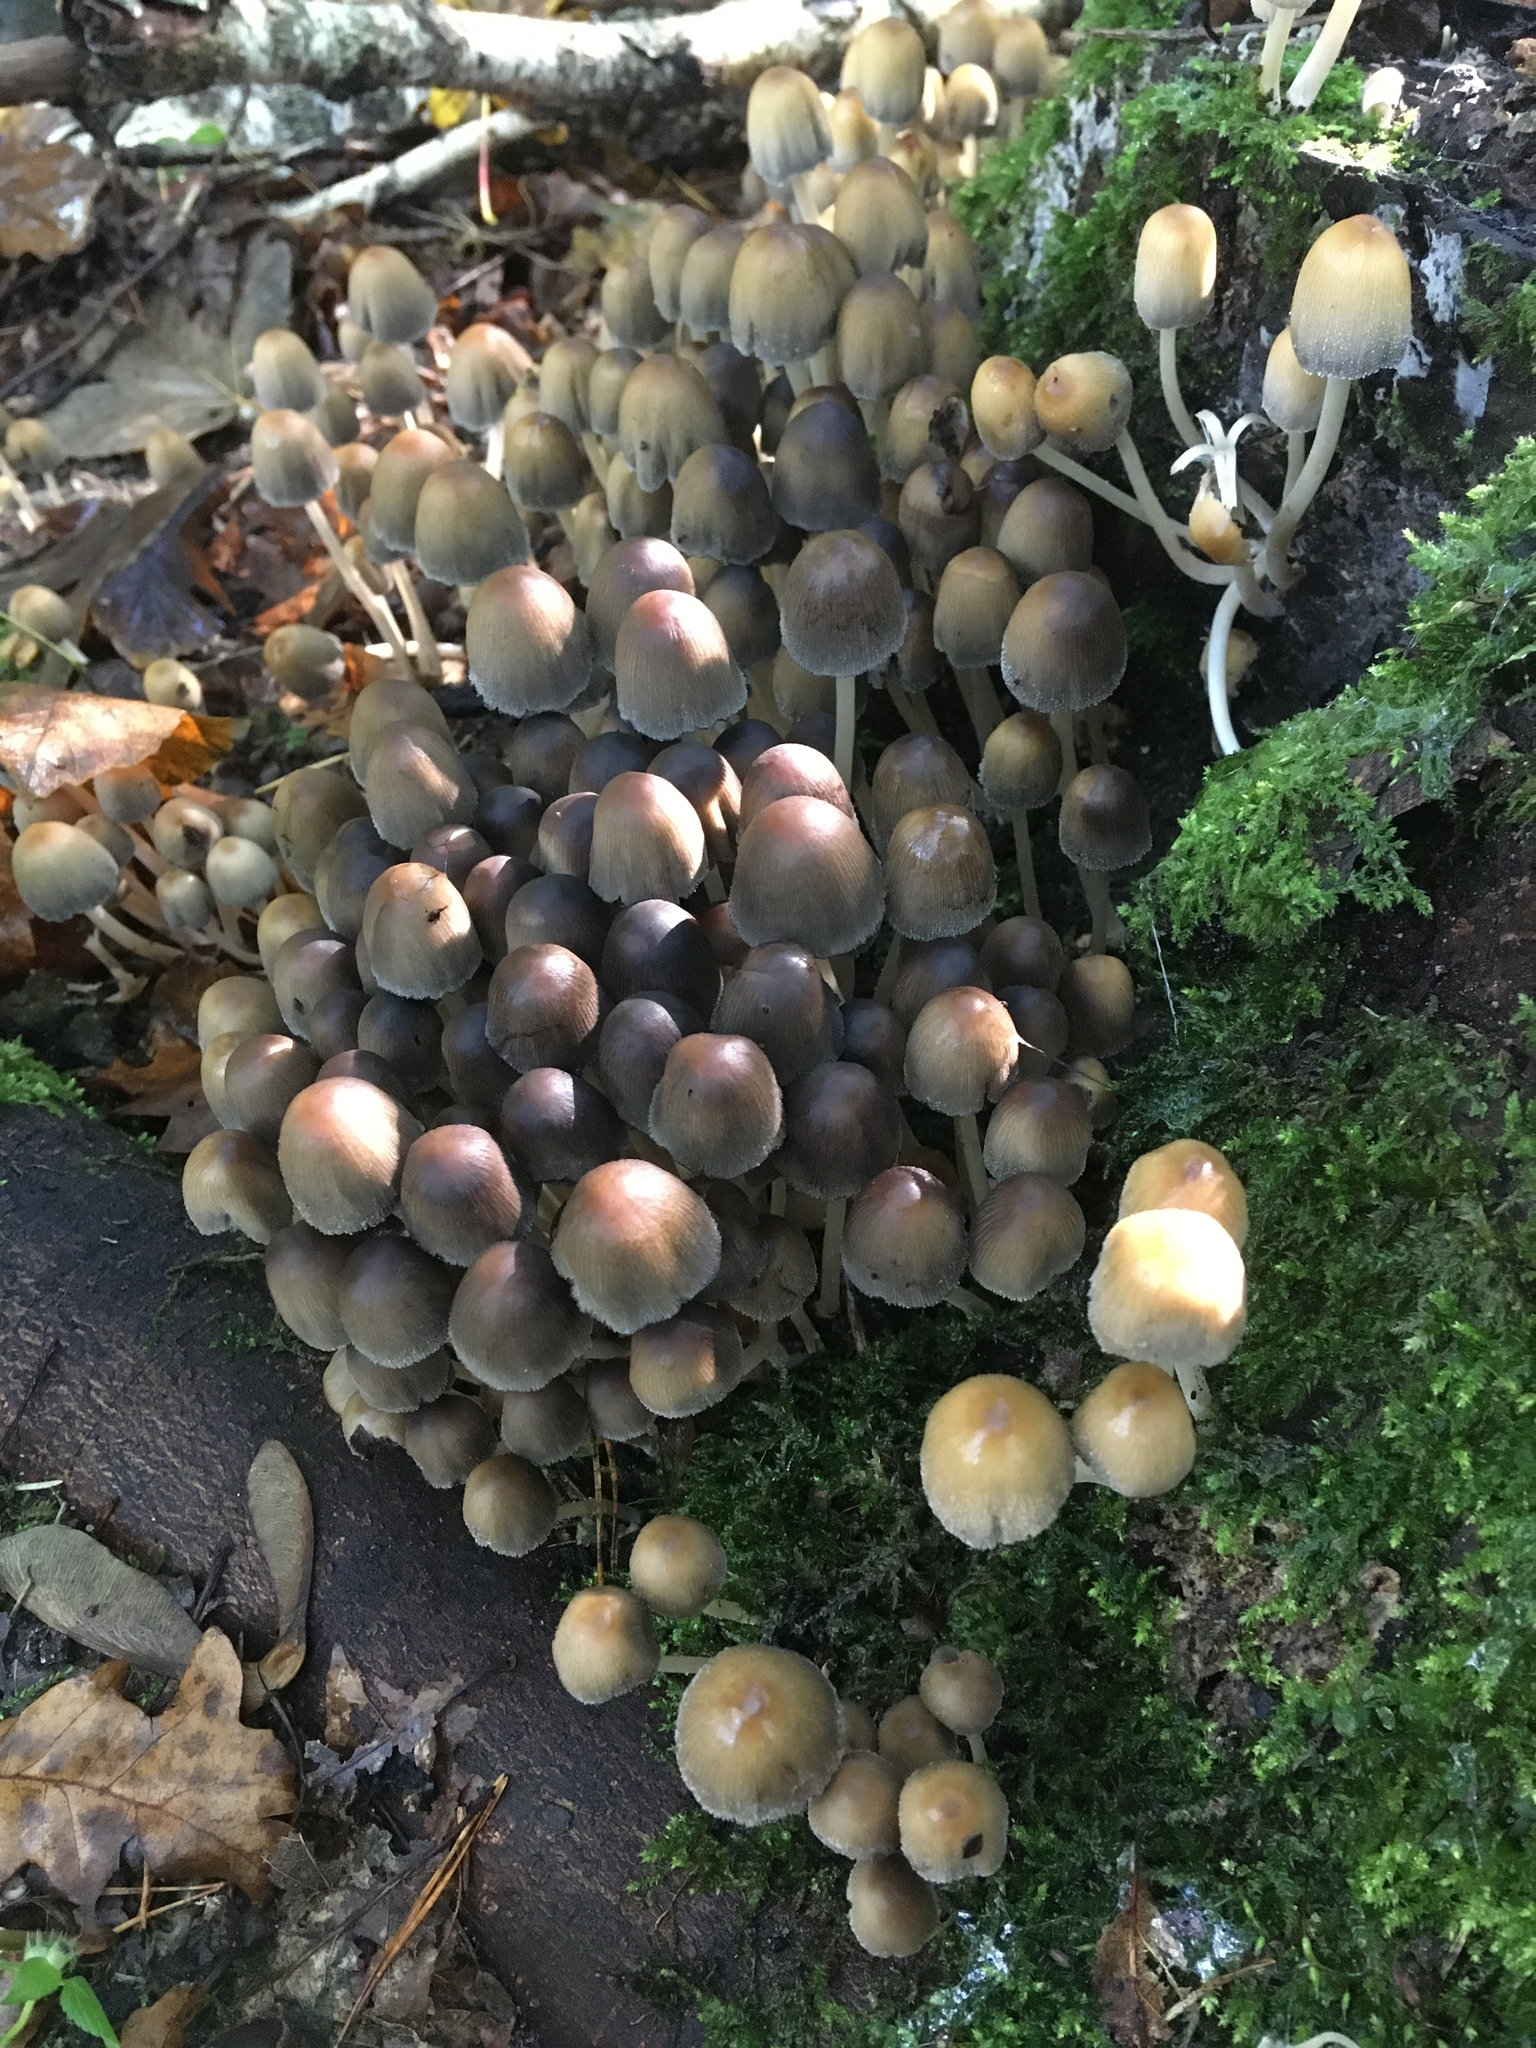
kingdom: Fungi
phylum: Basidiomycota
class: Agaricomycetes
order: Agaricales
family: Psathyrellaceae
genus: Coprinellus
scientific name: Coprinellus micaceus
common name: Glistening ink-cap
